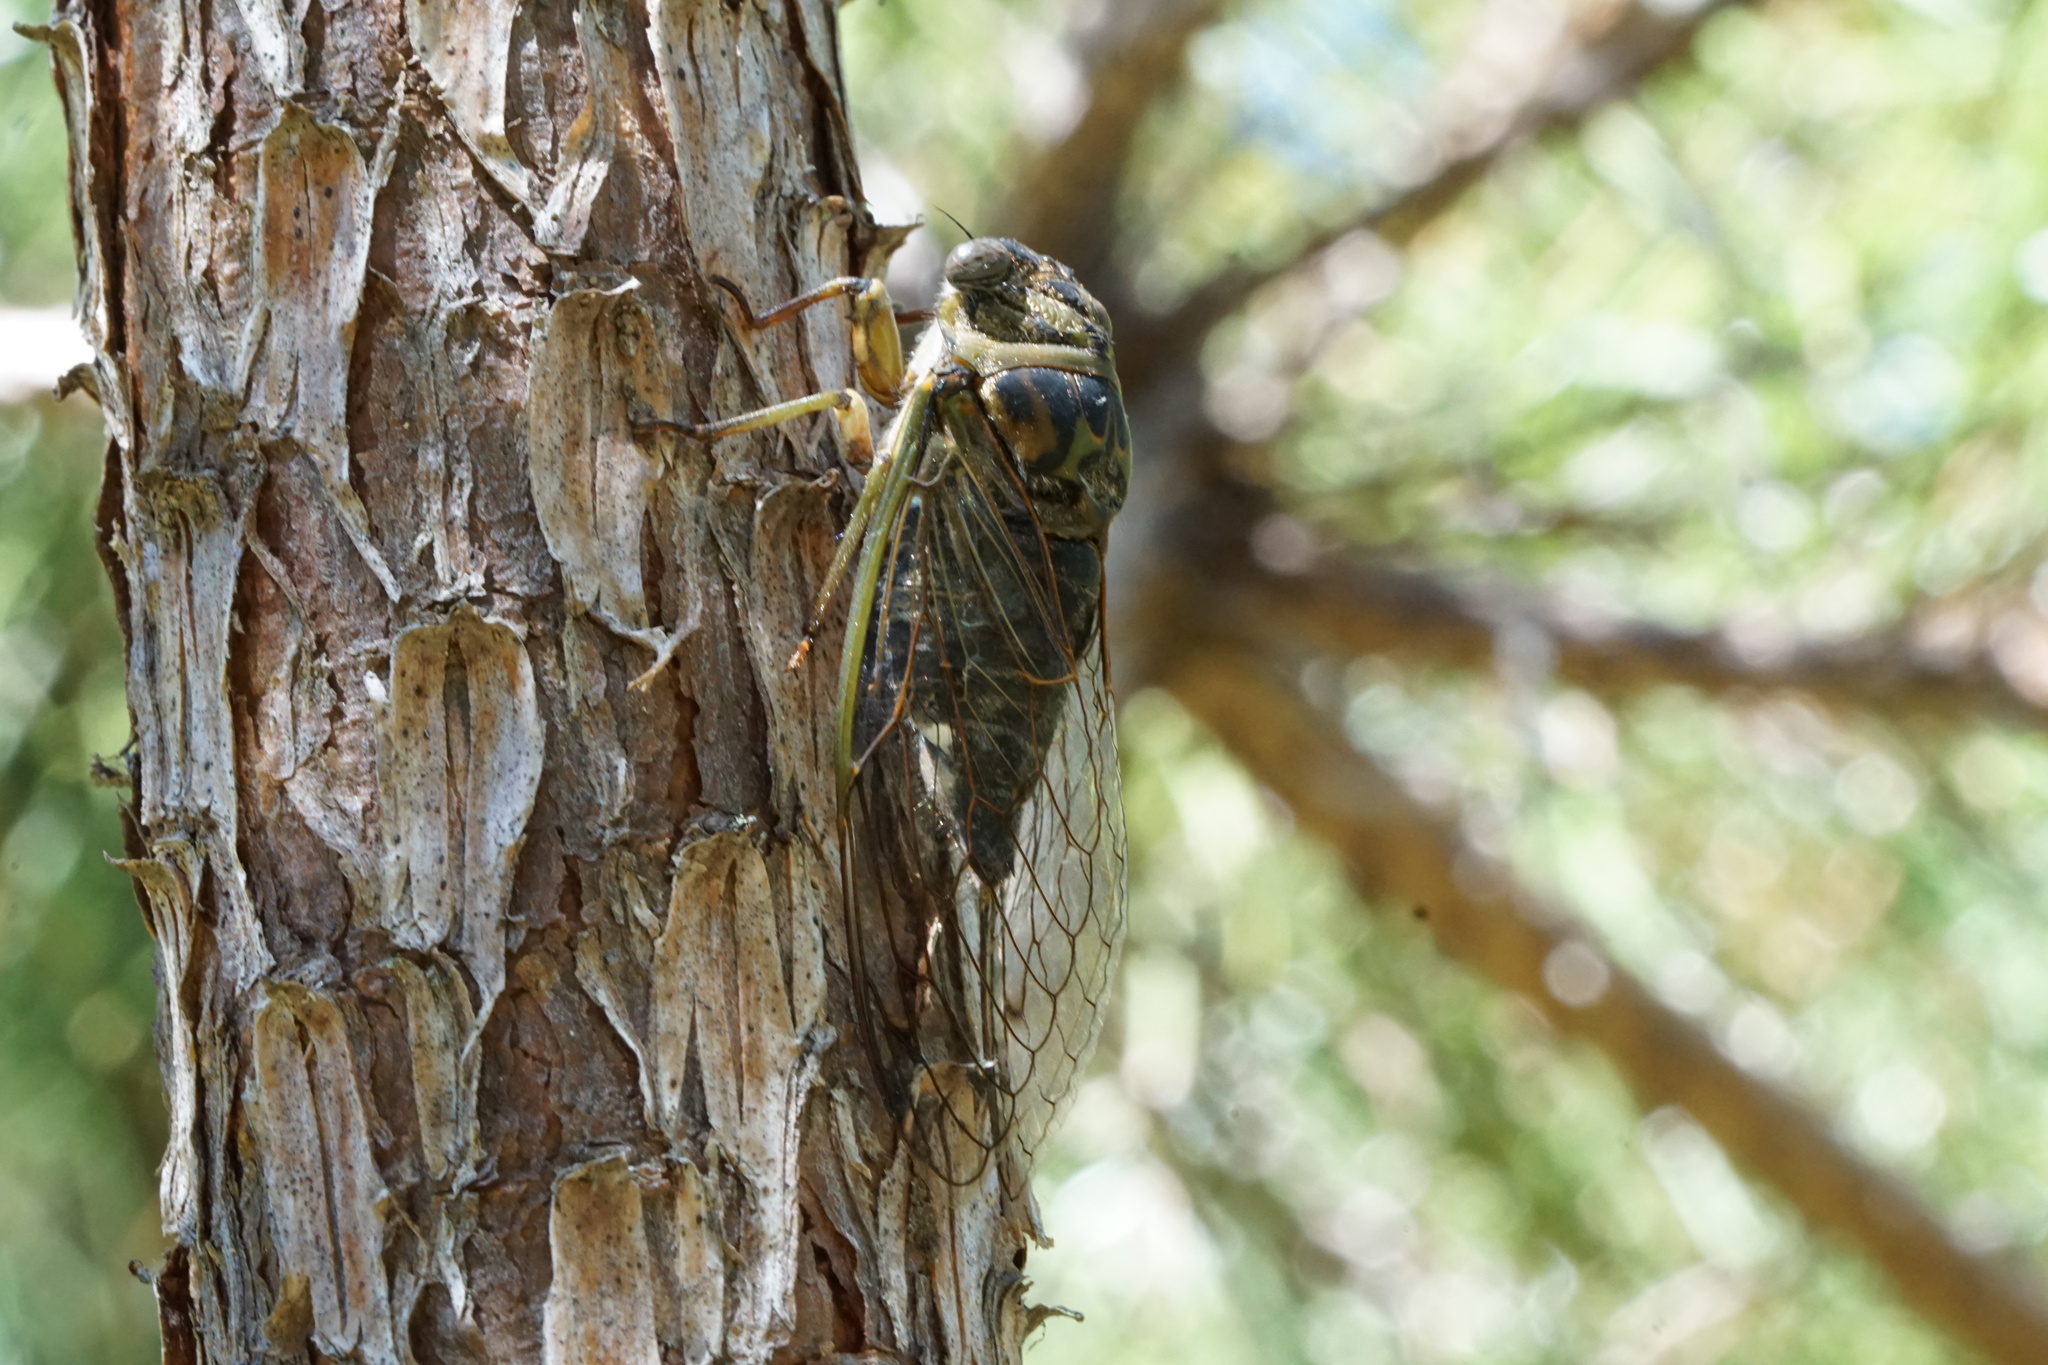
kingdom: Animalia
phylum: Arthropoda
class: Insecta
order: Hemiptera
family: Cicadidae
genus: Neotibicen
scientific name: Neotibicen canicularis
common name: God-day cicada
